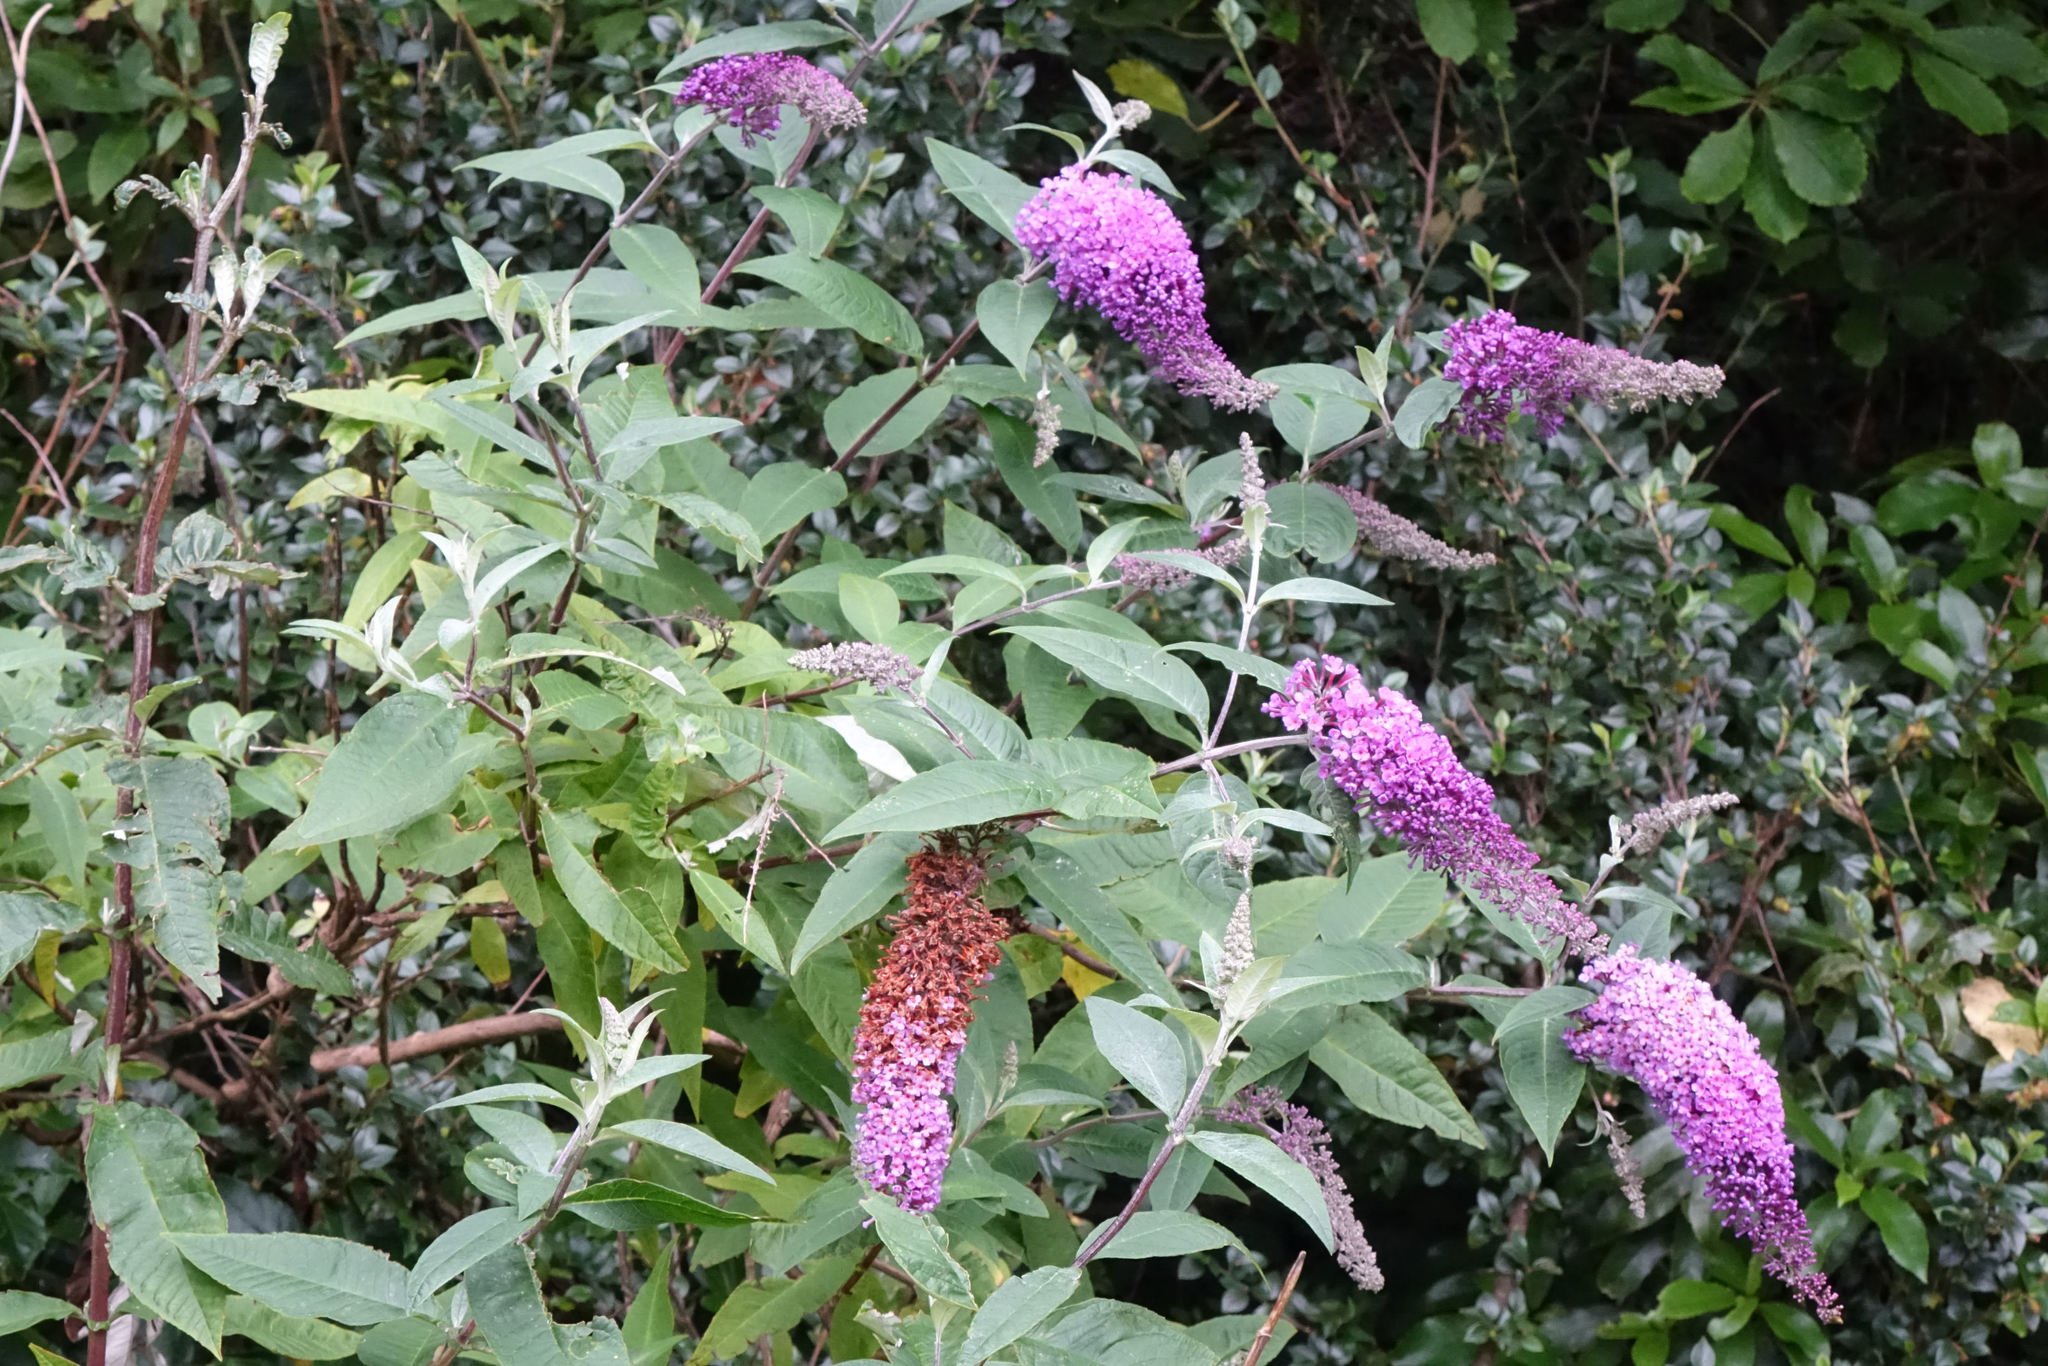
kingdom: Plantae
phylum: Tracheophyta
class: Magnoliopsida
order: Lamiales
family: Scrophulariaceae
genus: Buddleja
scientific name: Buddleja davidii
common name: Butterfly-bush
